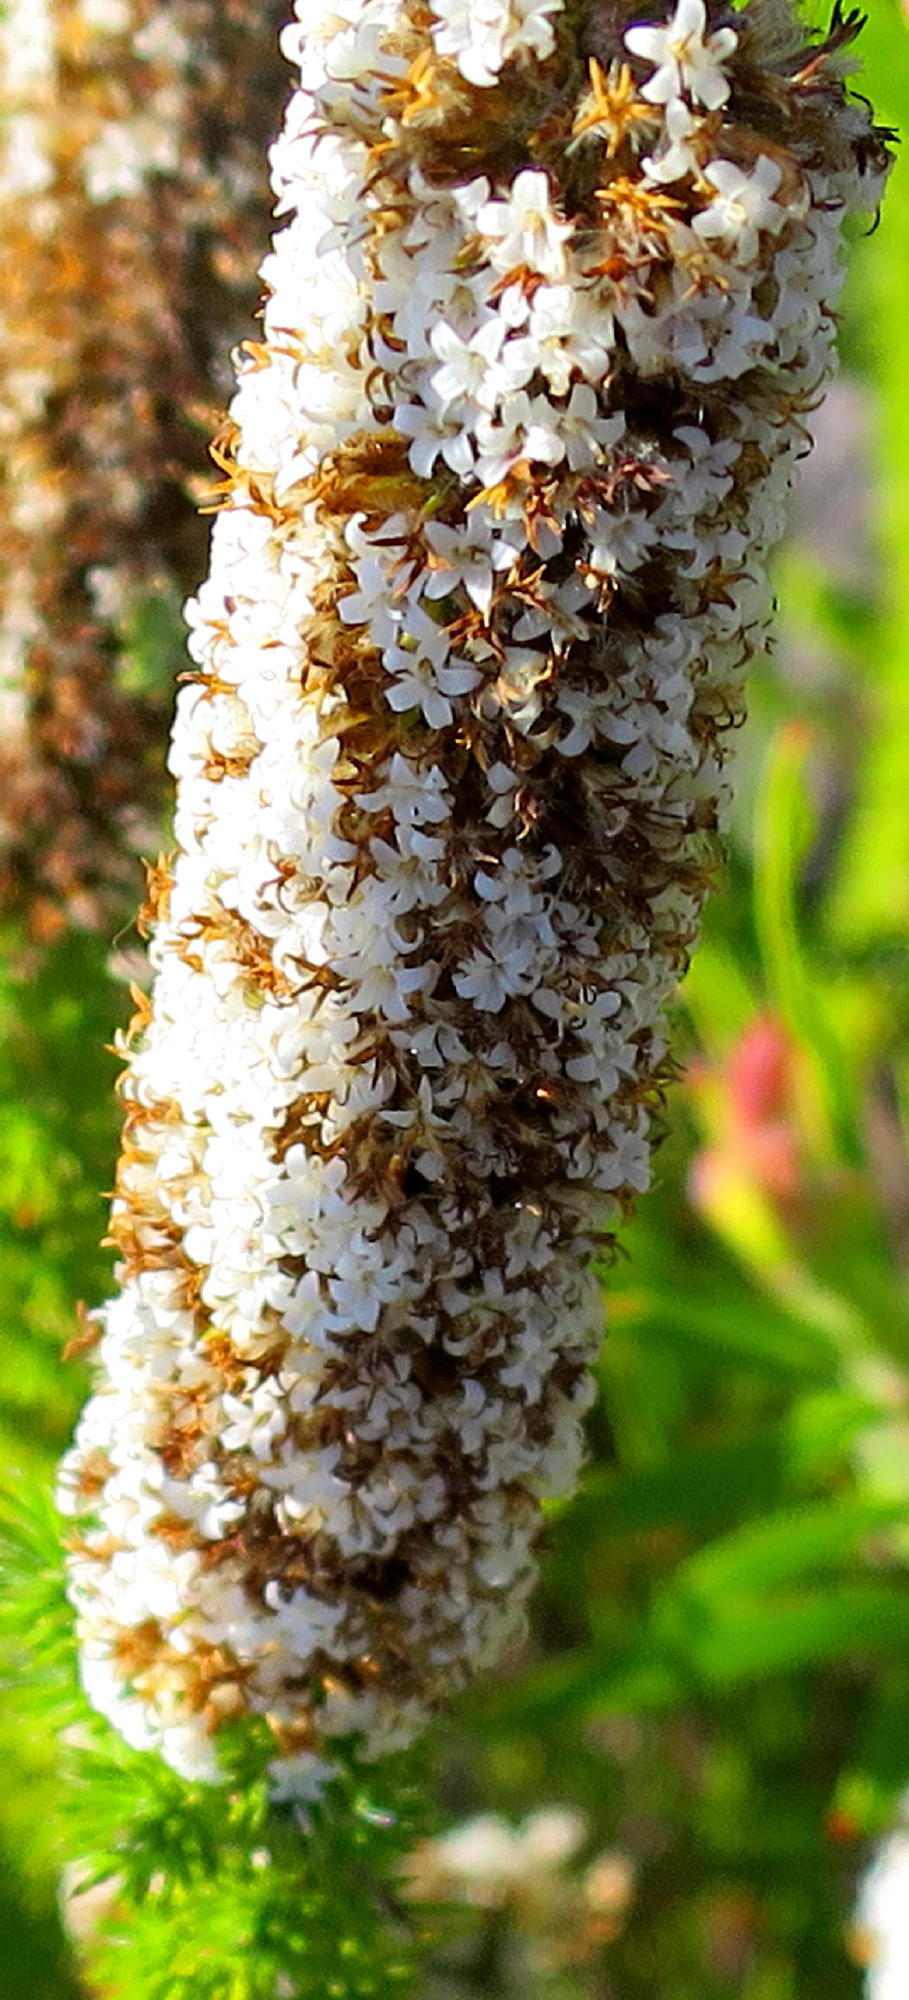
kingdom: Plantae
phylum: Tracheophyta
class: Magnoliopsida
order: Asterales
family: Asteraceae
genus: Stoebe
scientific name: Stoebe alopecuroides
